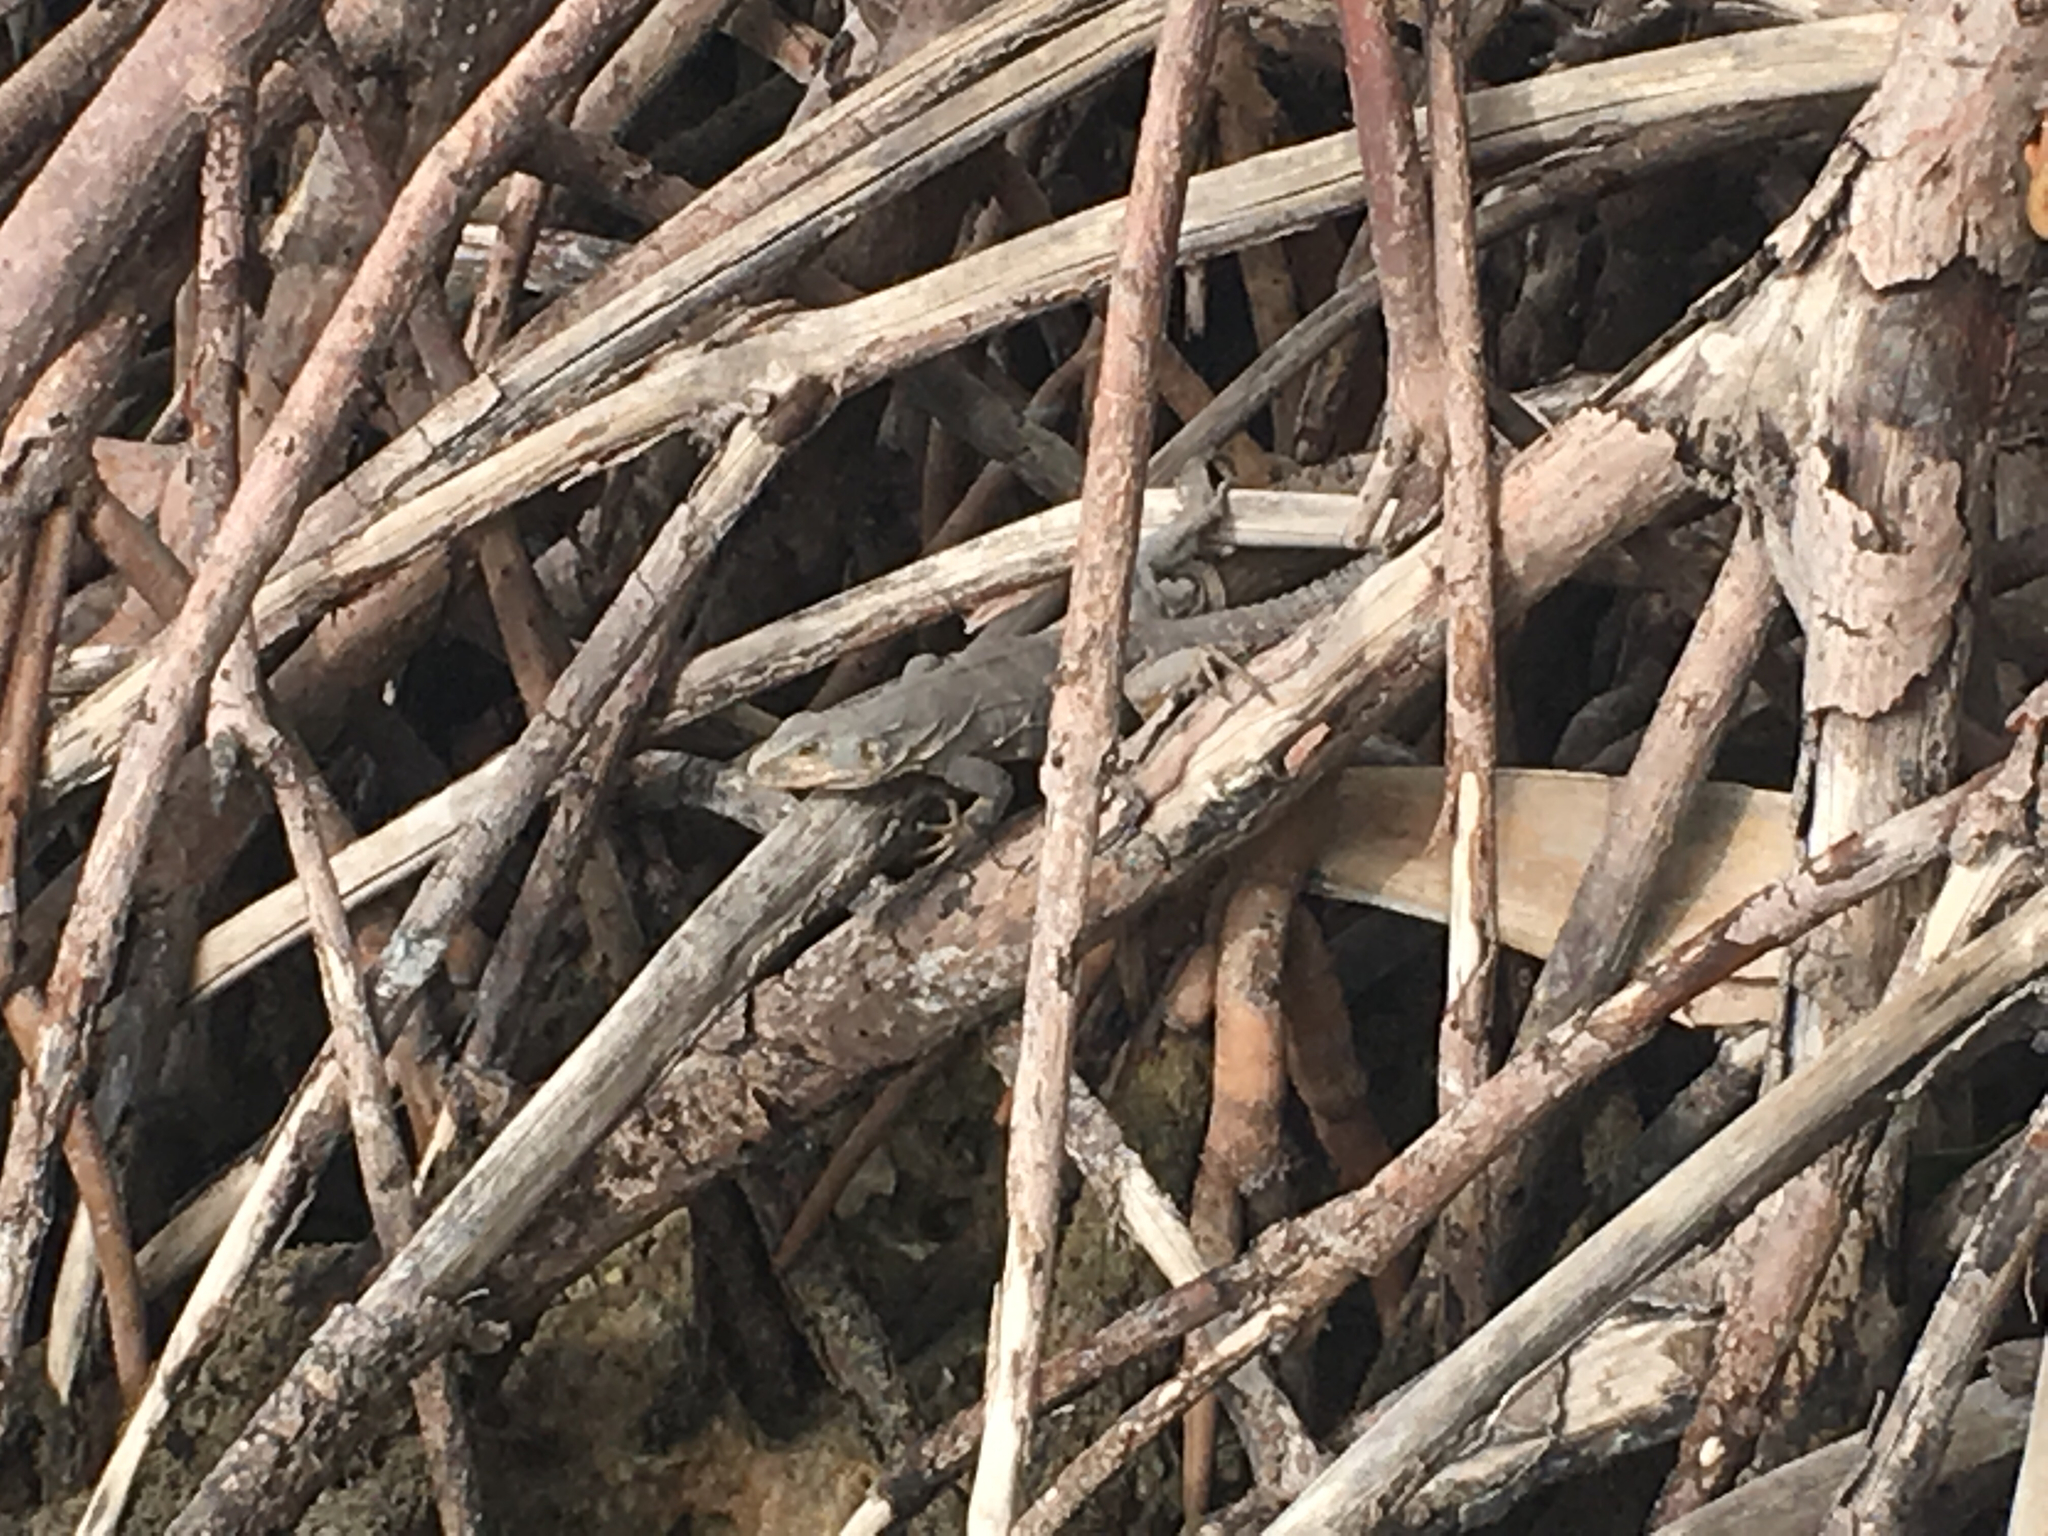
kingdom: Animalia
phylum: Chordata
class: Squamata
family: Iguanidae
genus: Ctenosaura
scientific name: Ctenosaura
